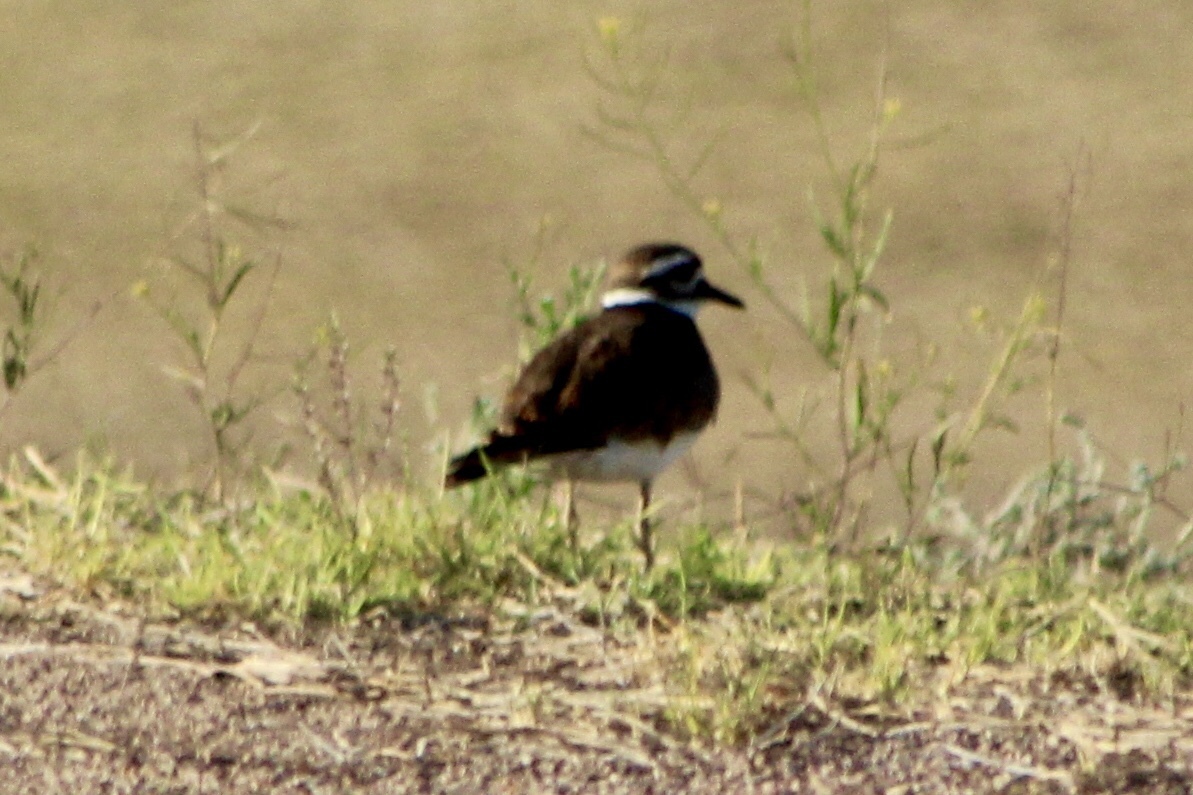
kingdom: Animalia
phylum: Chordata
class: Aves
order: Charadriiformes
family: Charadriidae
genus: Charadrius
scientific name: Charadrius vociferus
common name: Killdeer
